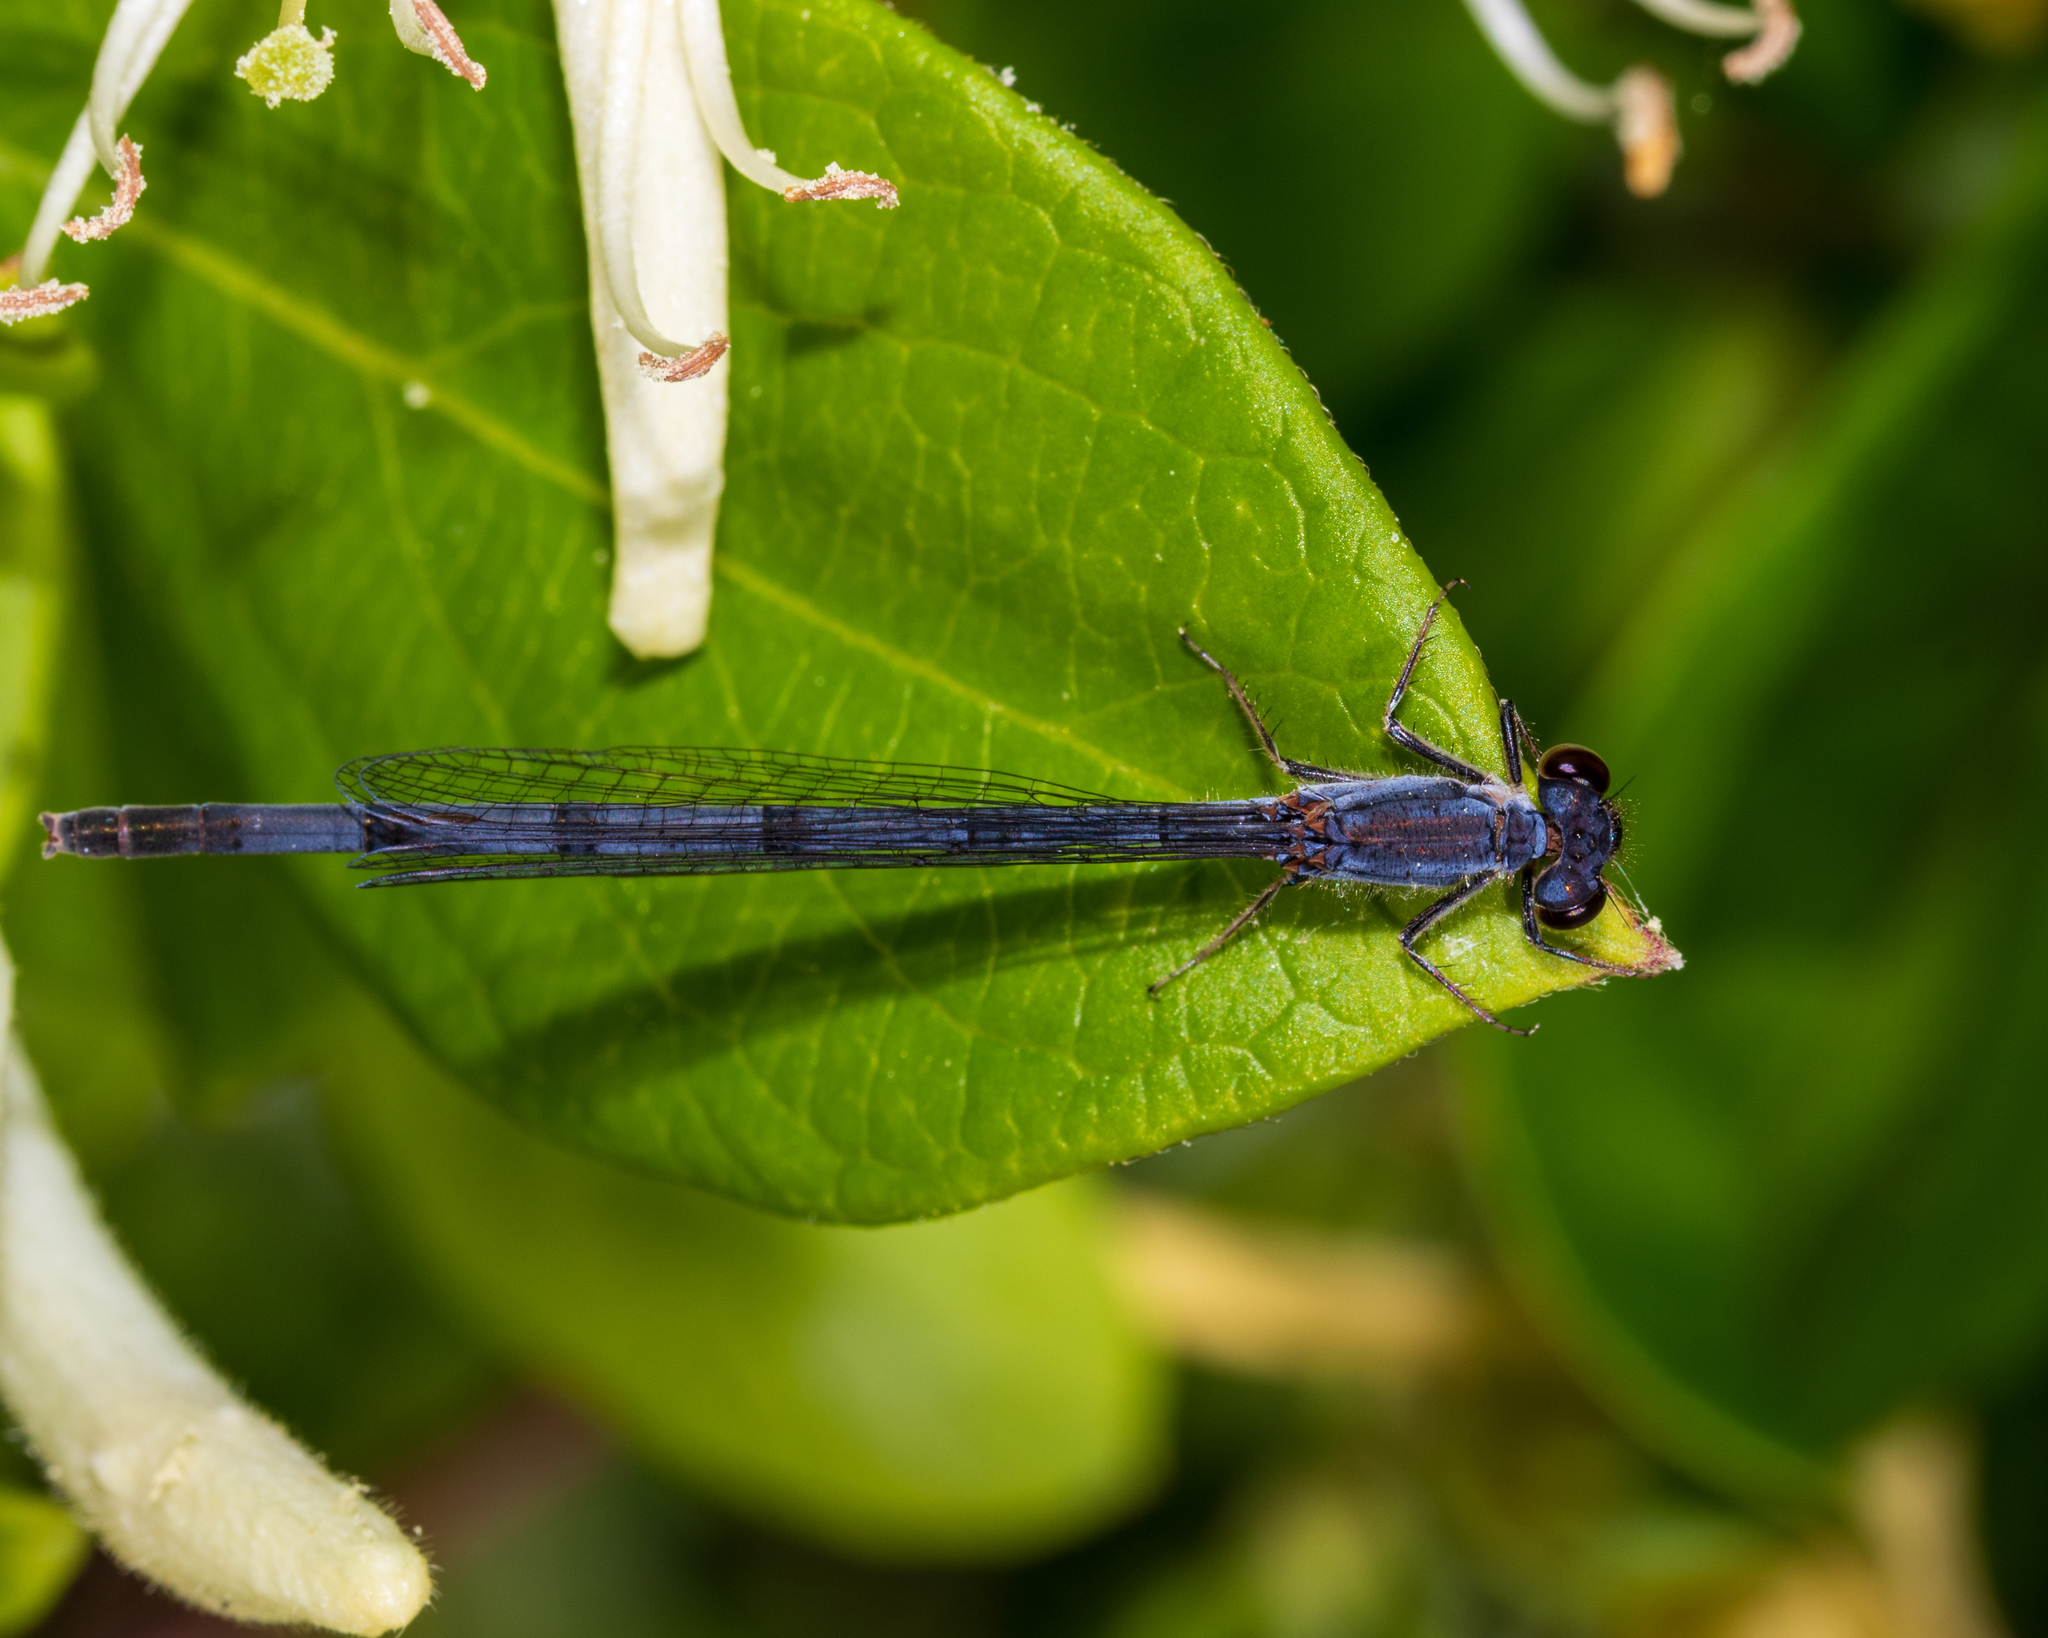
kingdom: Animalia
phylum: Arthropoda
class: Insecta
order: Odonata
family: Coenagrionidae
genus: Ischnura
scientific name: Ischnura posita
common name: Fragile forktail
